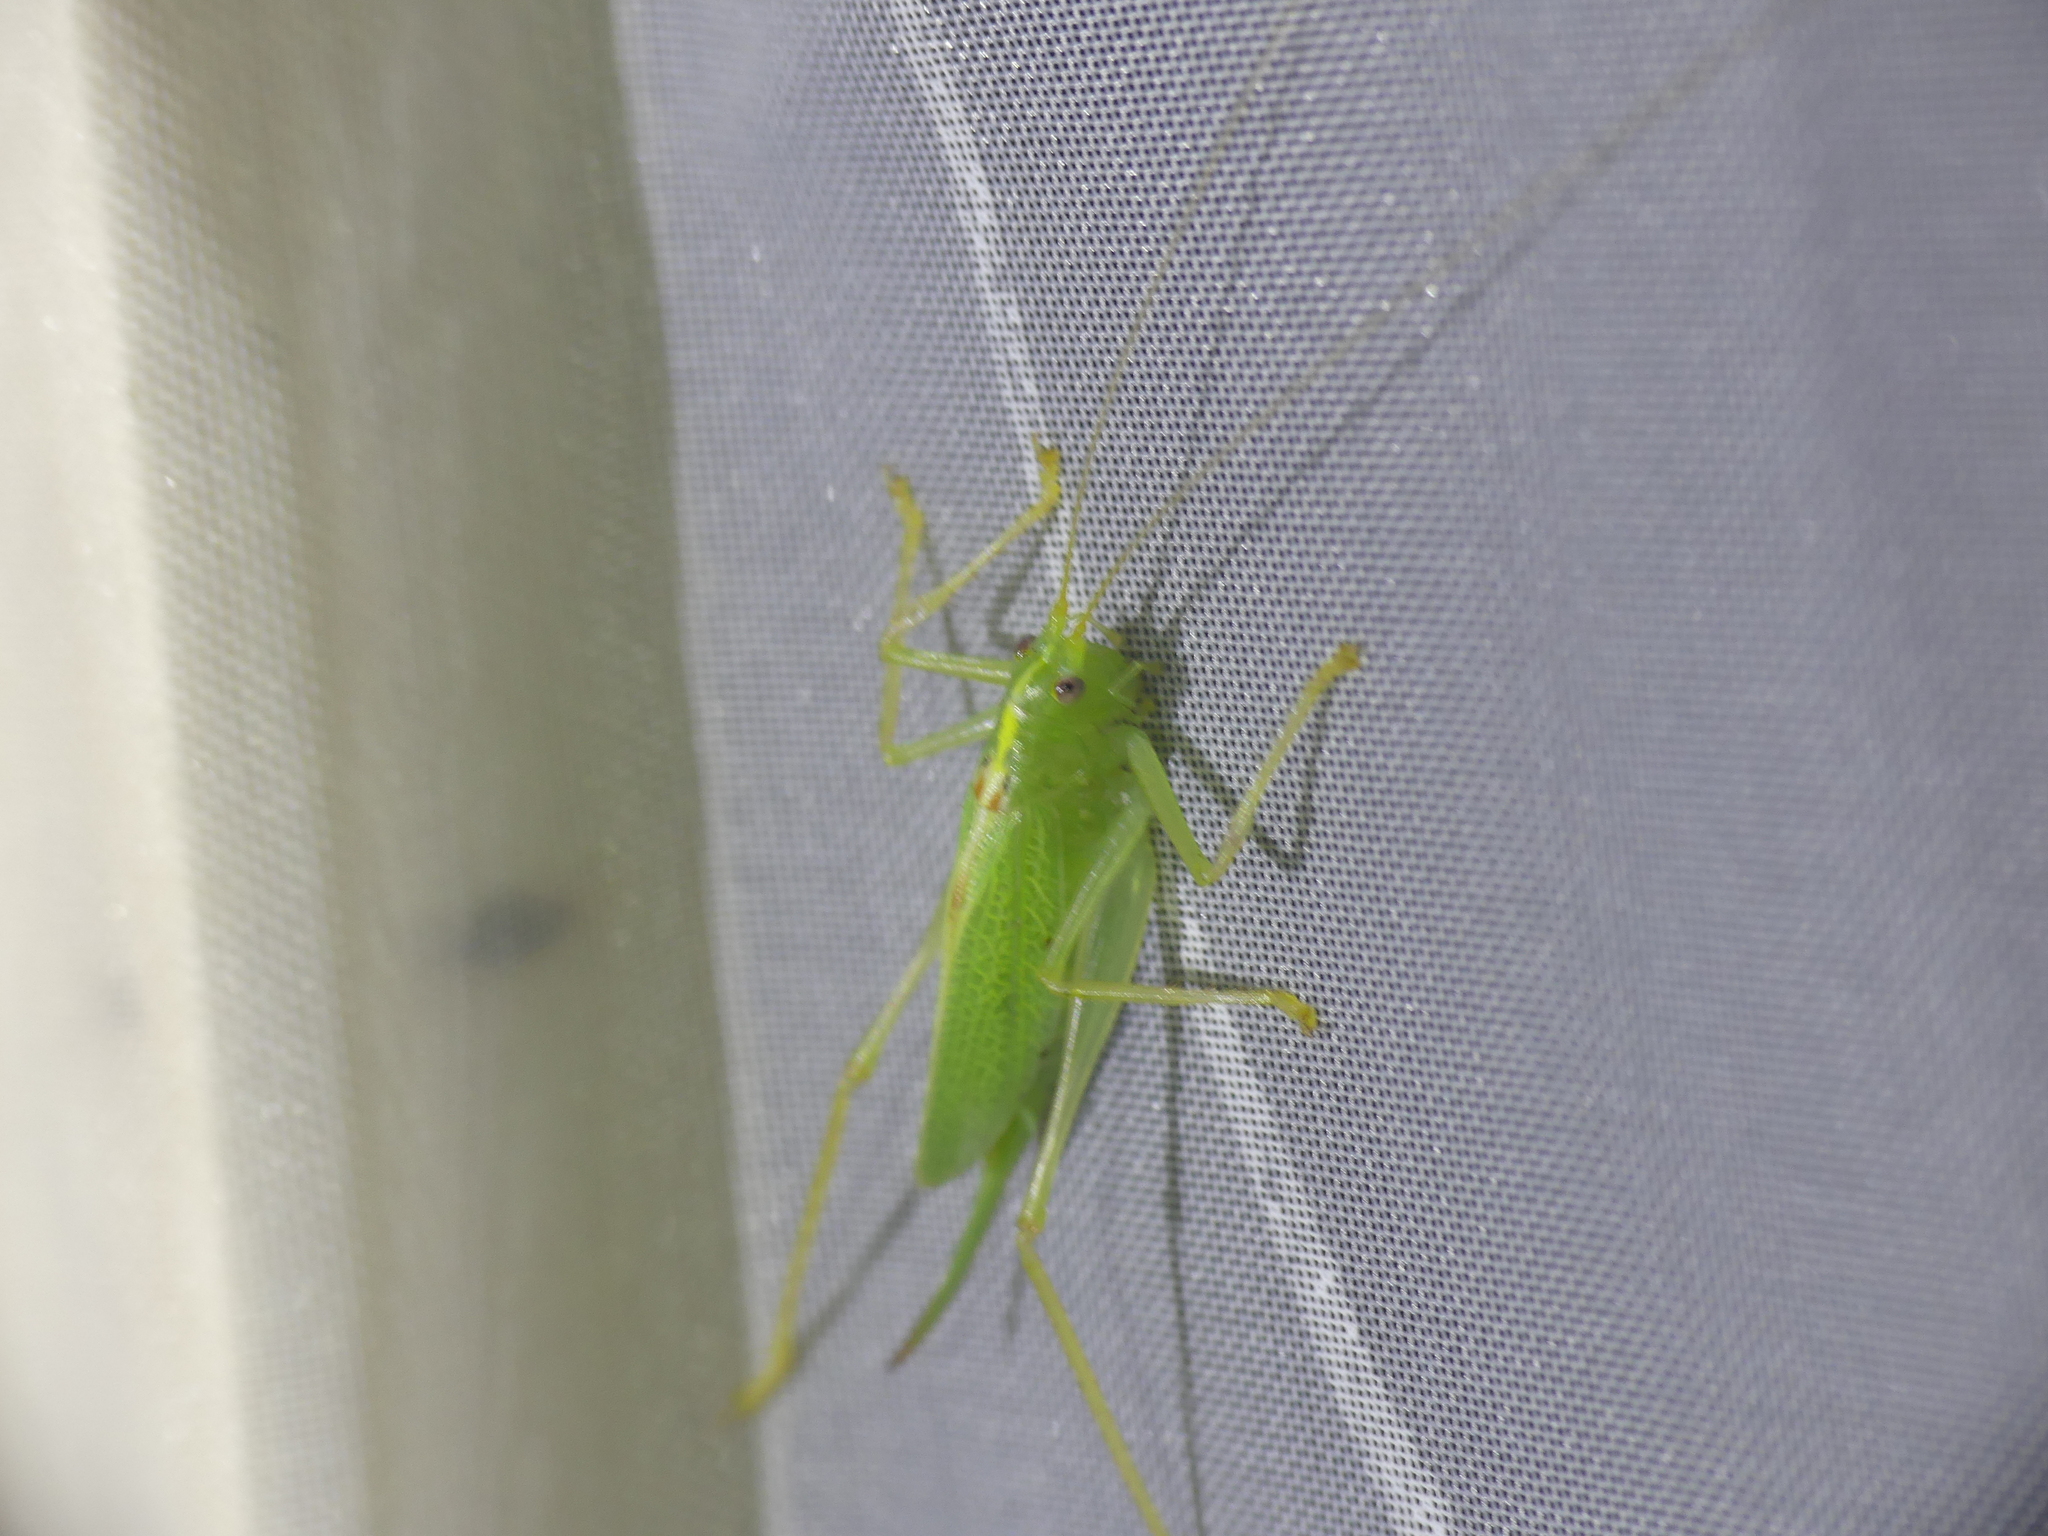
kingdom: Animalia
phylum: Arthropoda
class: Insecta
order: Orthoptera
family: Tettigoniidae
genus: Meconema
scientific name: Meconema thalassinum
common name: Oak bush-cricket
